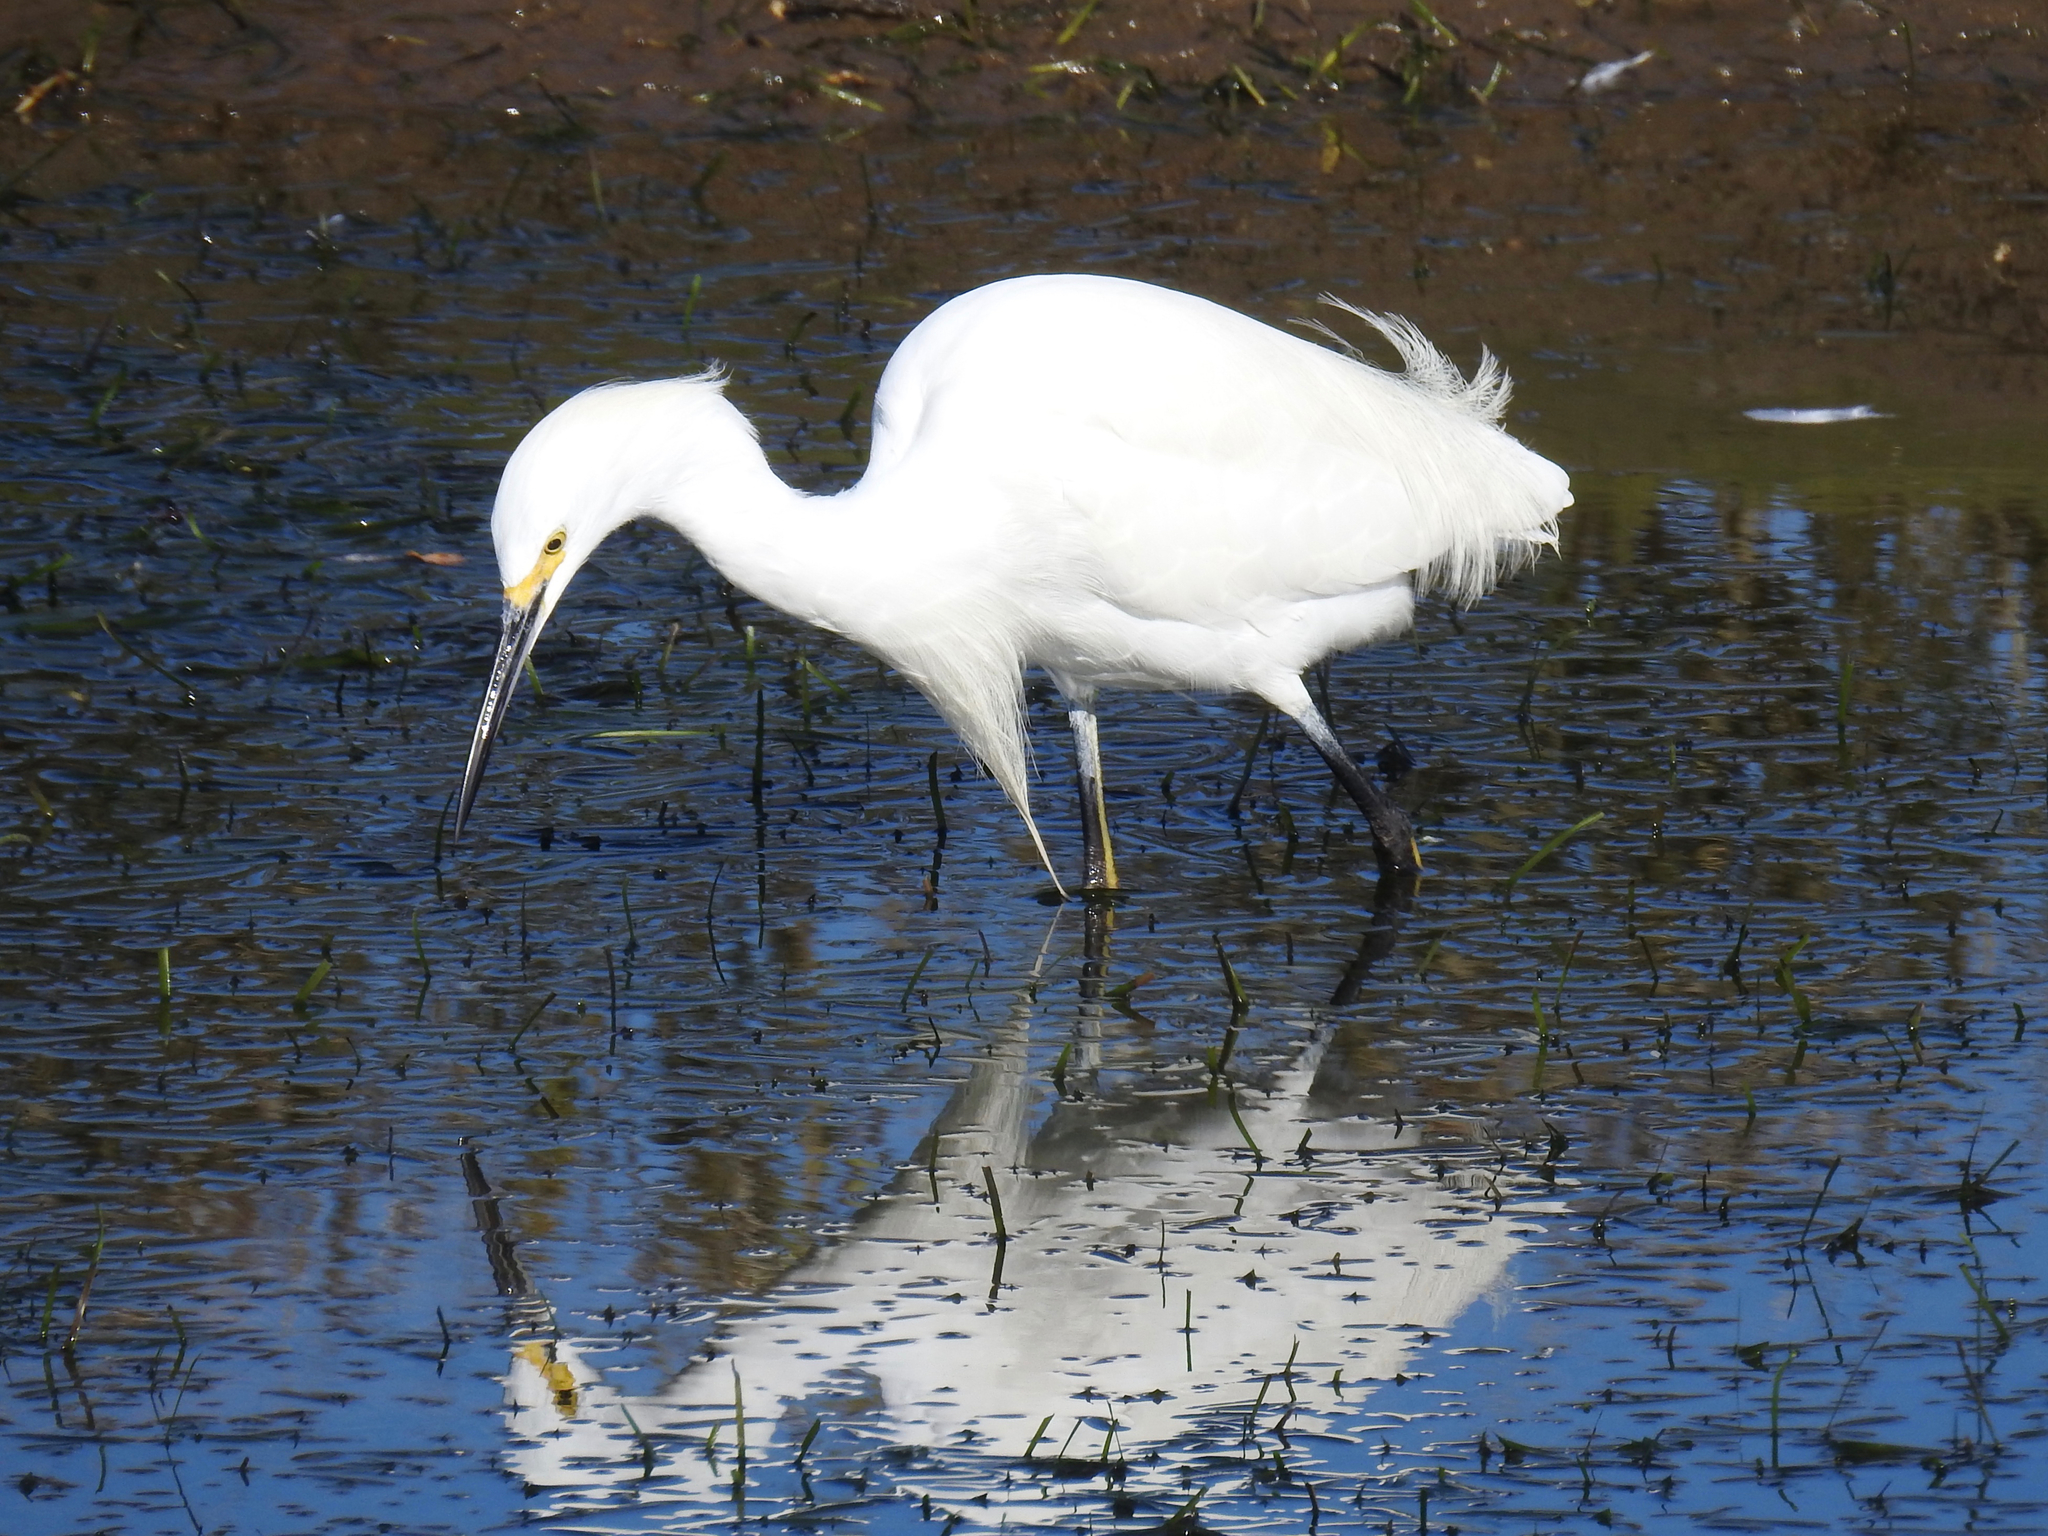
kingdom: Animalia
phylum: Chordata
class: Aves
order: Pelecaniformes
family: Ardeidae
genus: Egretta
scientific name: Egretta thula
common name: Snowy egret
